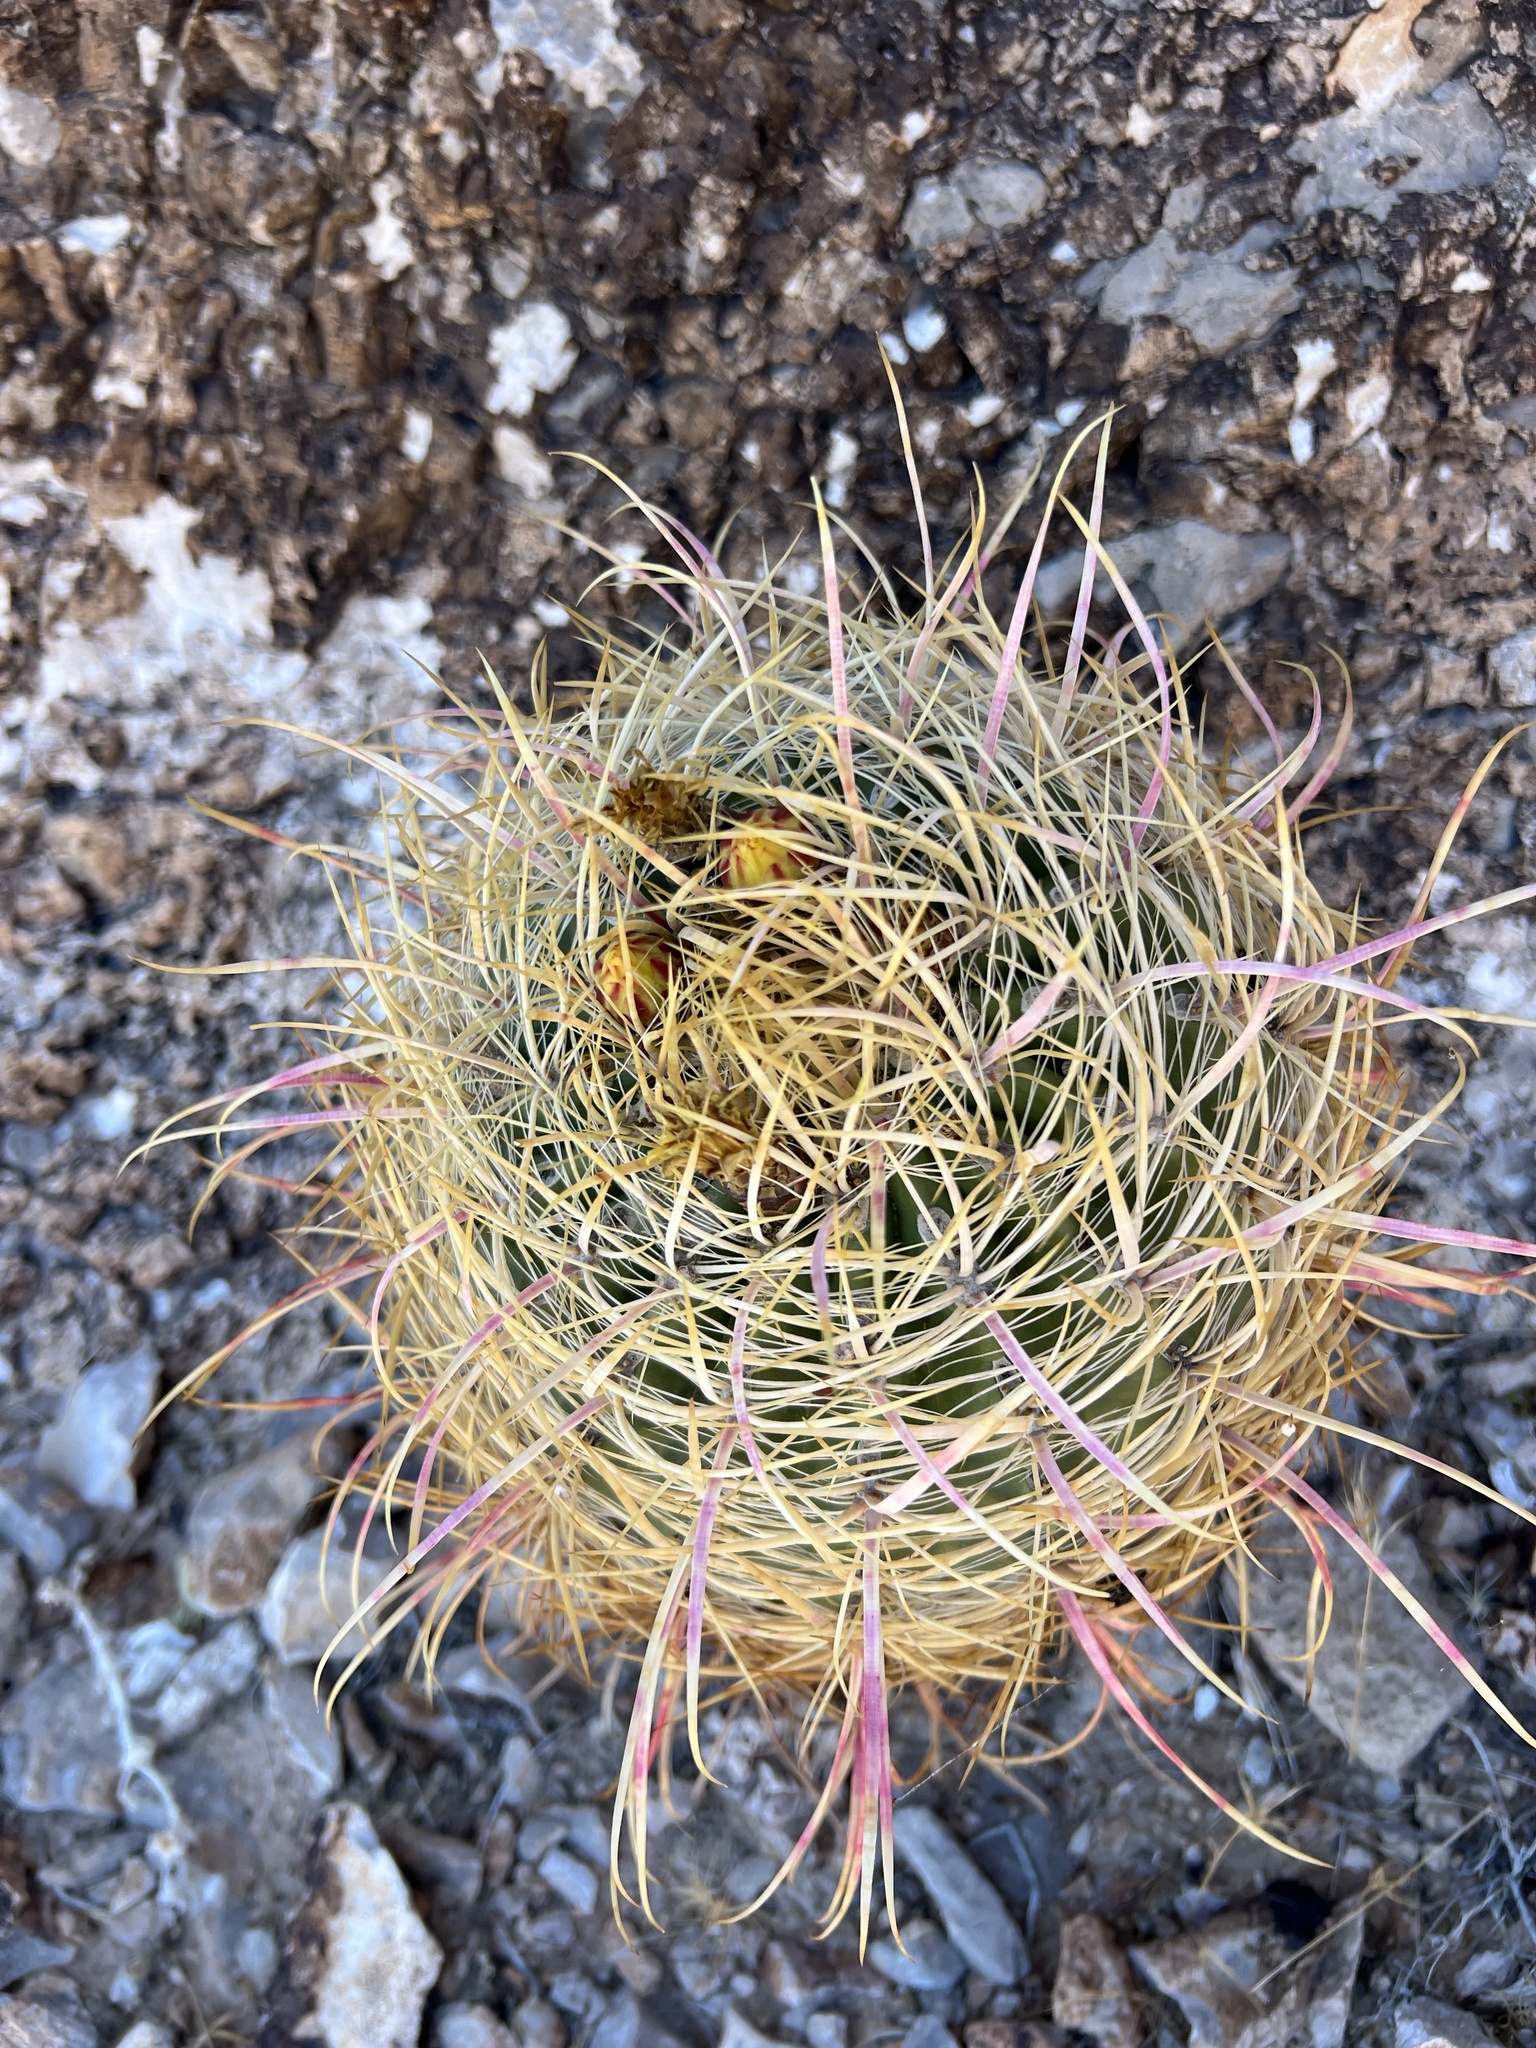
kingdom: Plantae
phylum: Tracheophyta
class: Magnoliopsida
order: Caryophyllales
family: Cactaceae
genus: Ferocactus
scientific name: Ferocactus cylindraceus
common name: California barrel cactus
